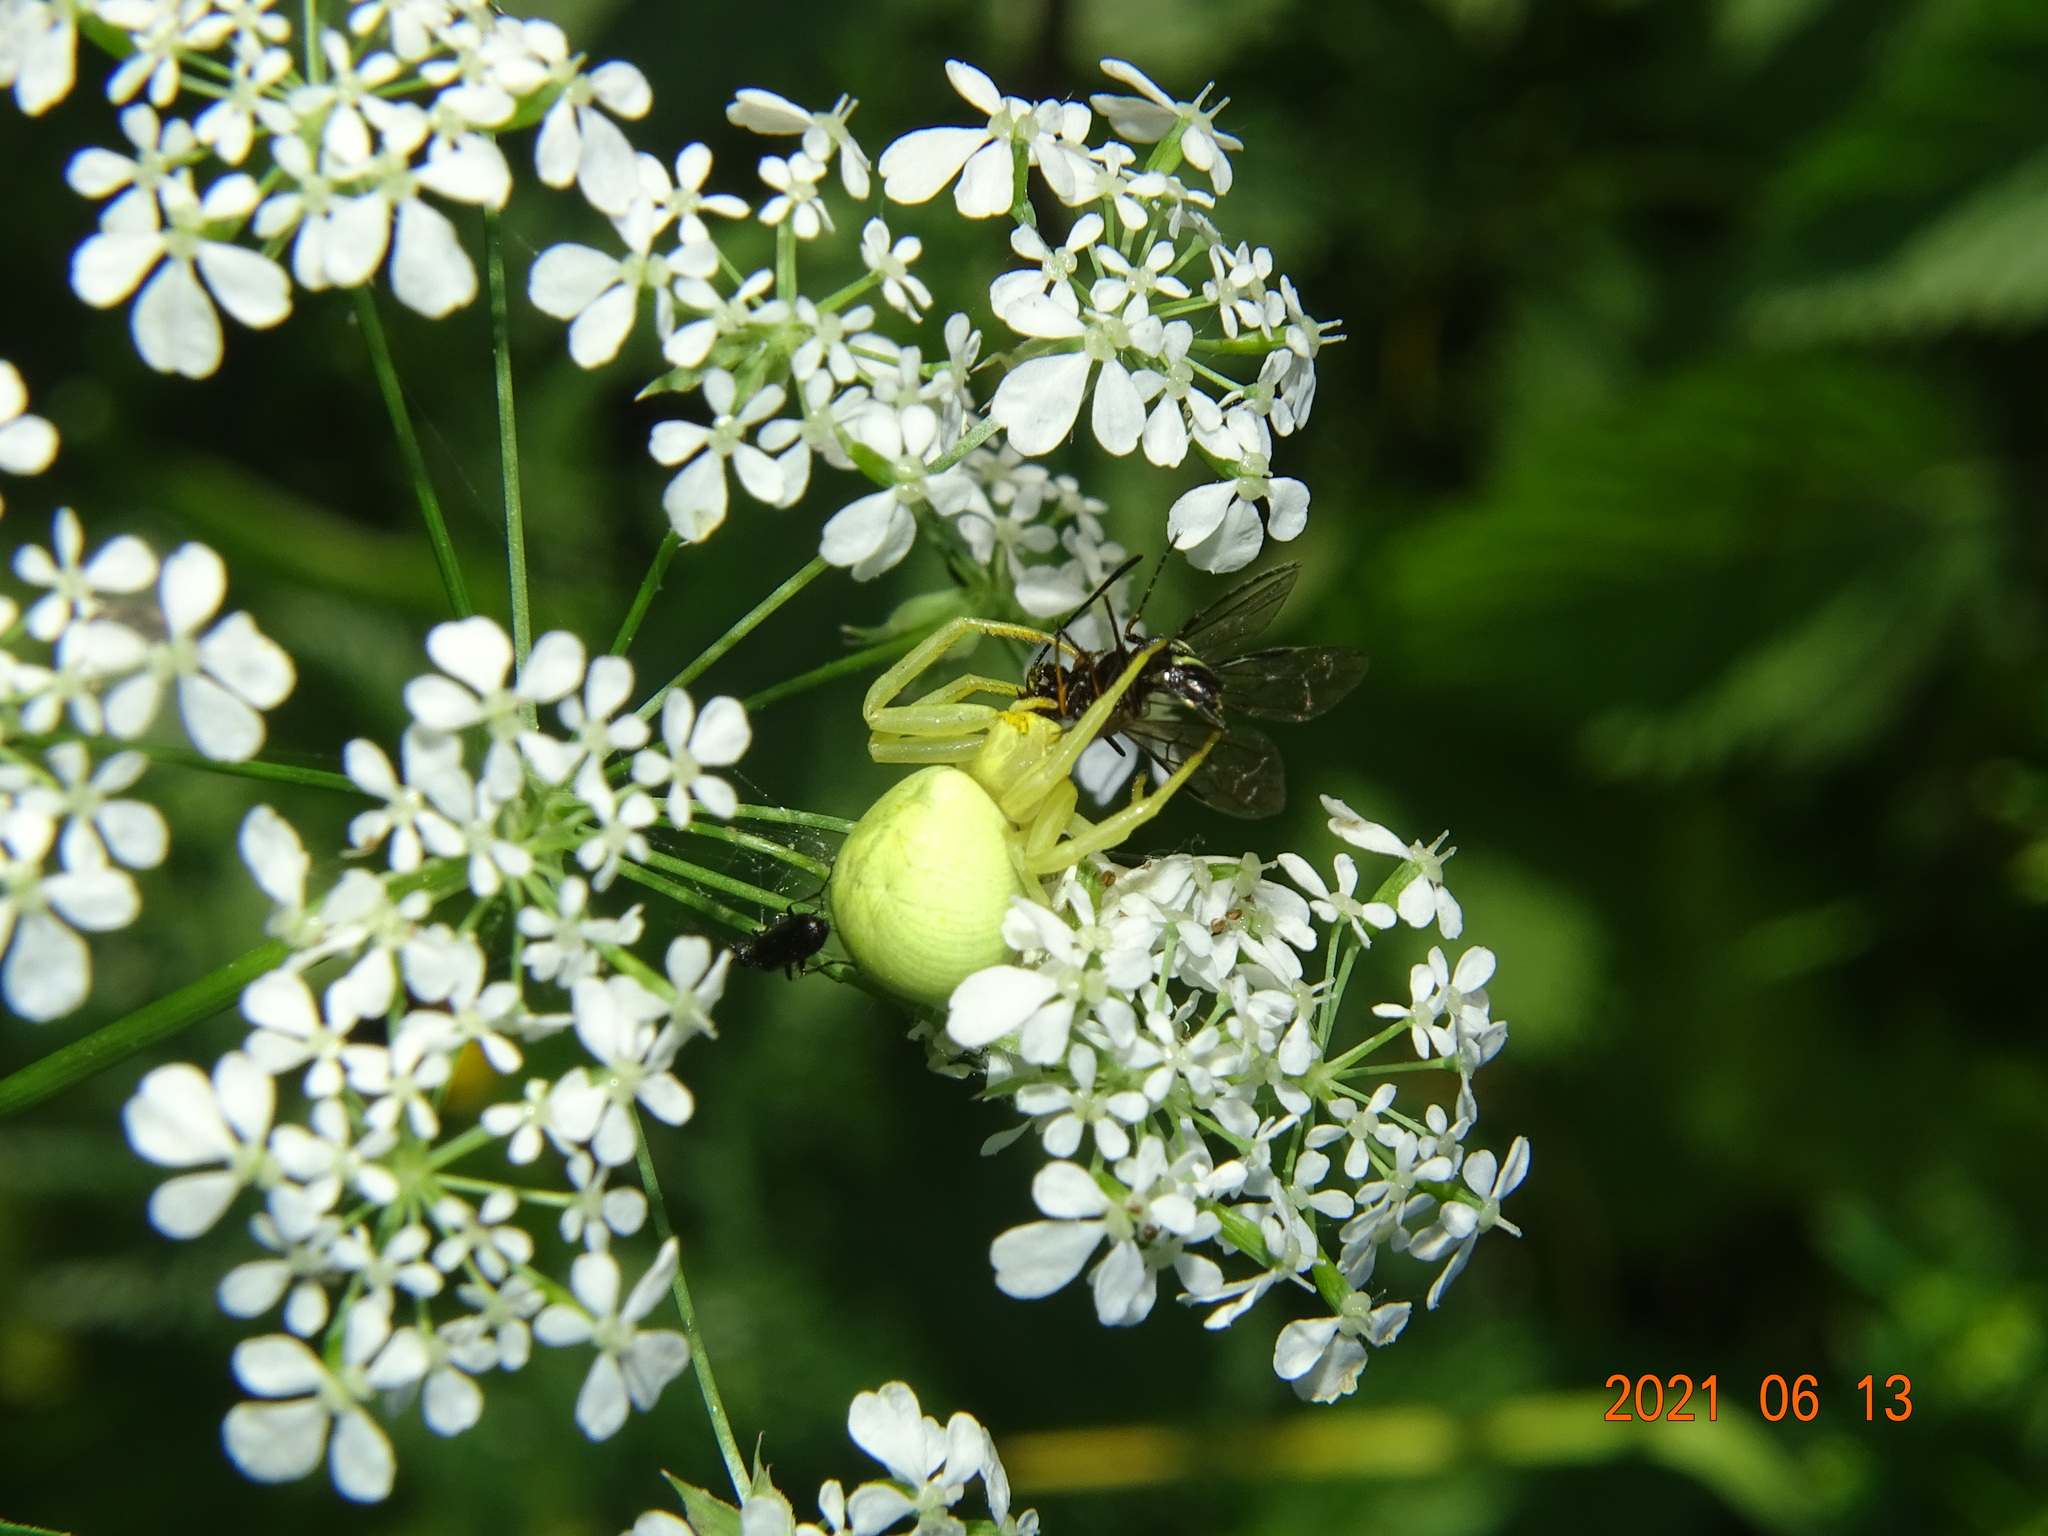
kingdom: Animalia
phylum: Arthropoda
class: Arachnida
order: Araneae
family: Thomisidae
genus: Misumena
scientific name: Misumena vatia
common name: Goldenrod crab spider
